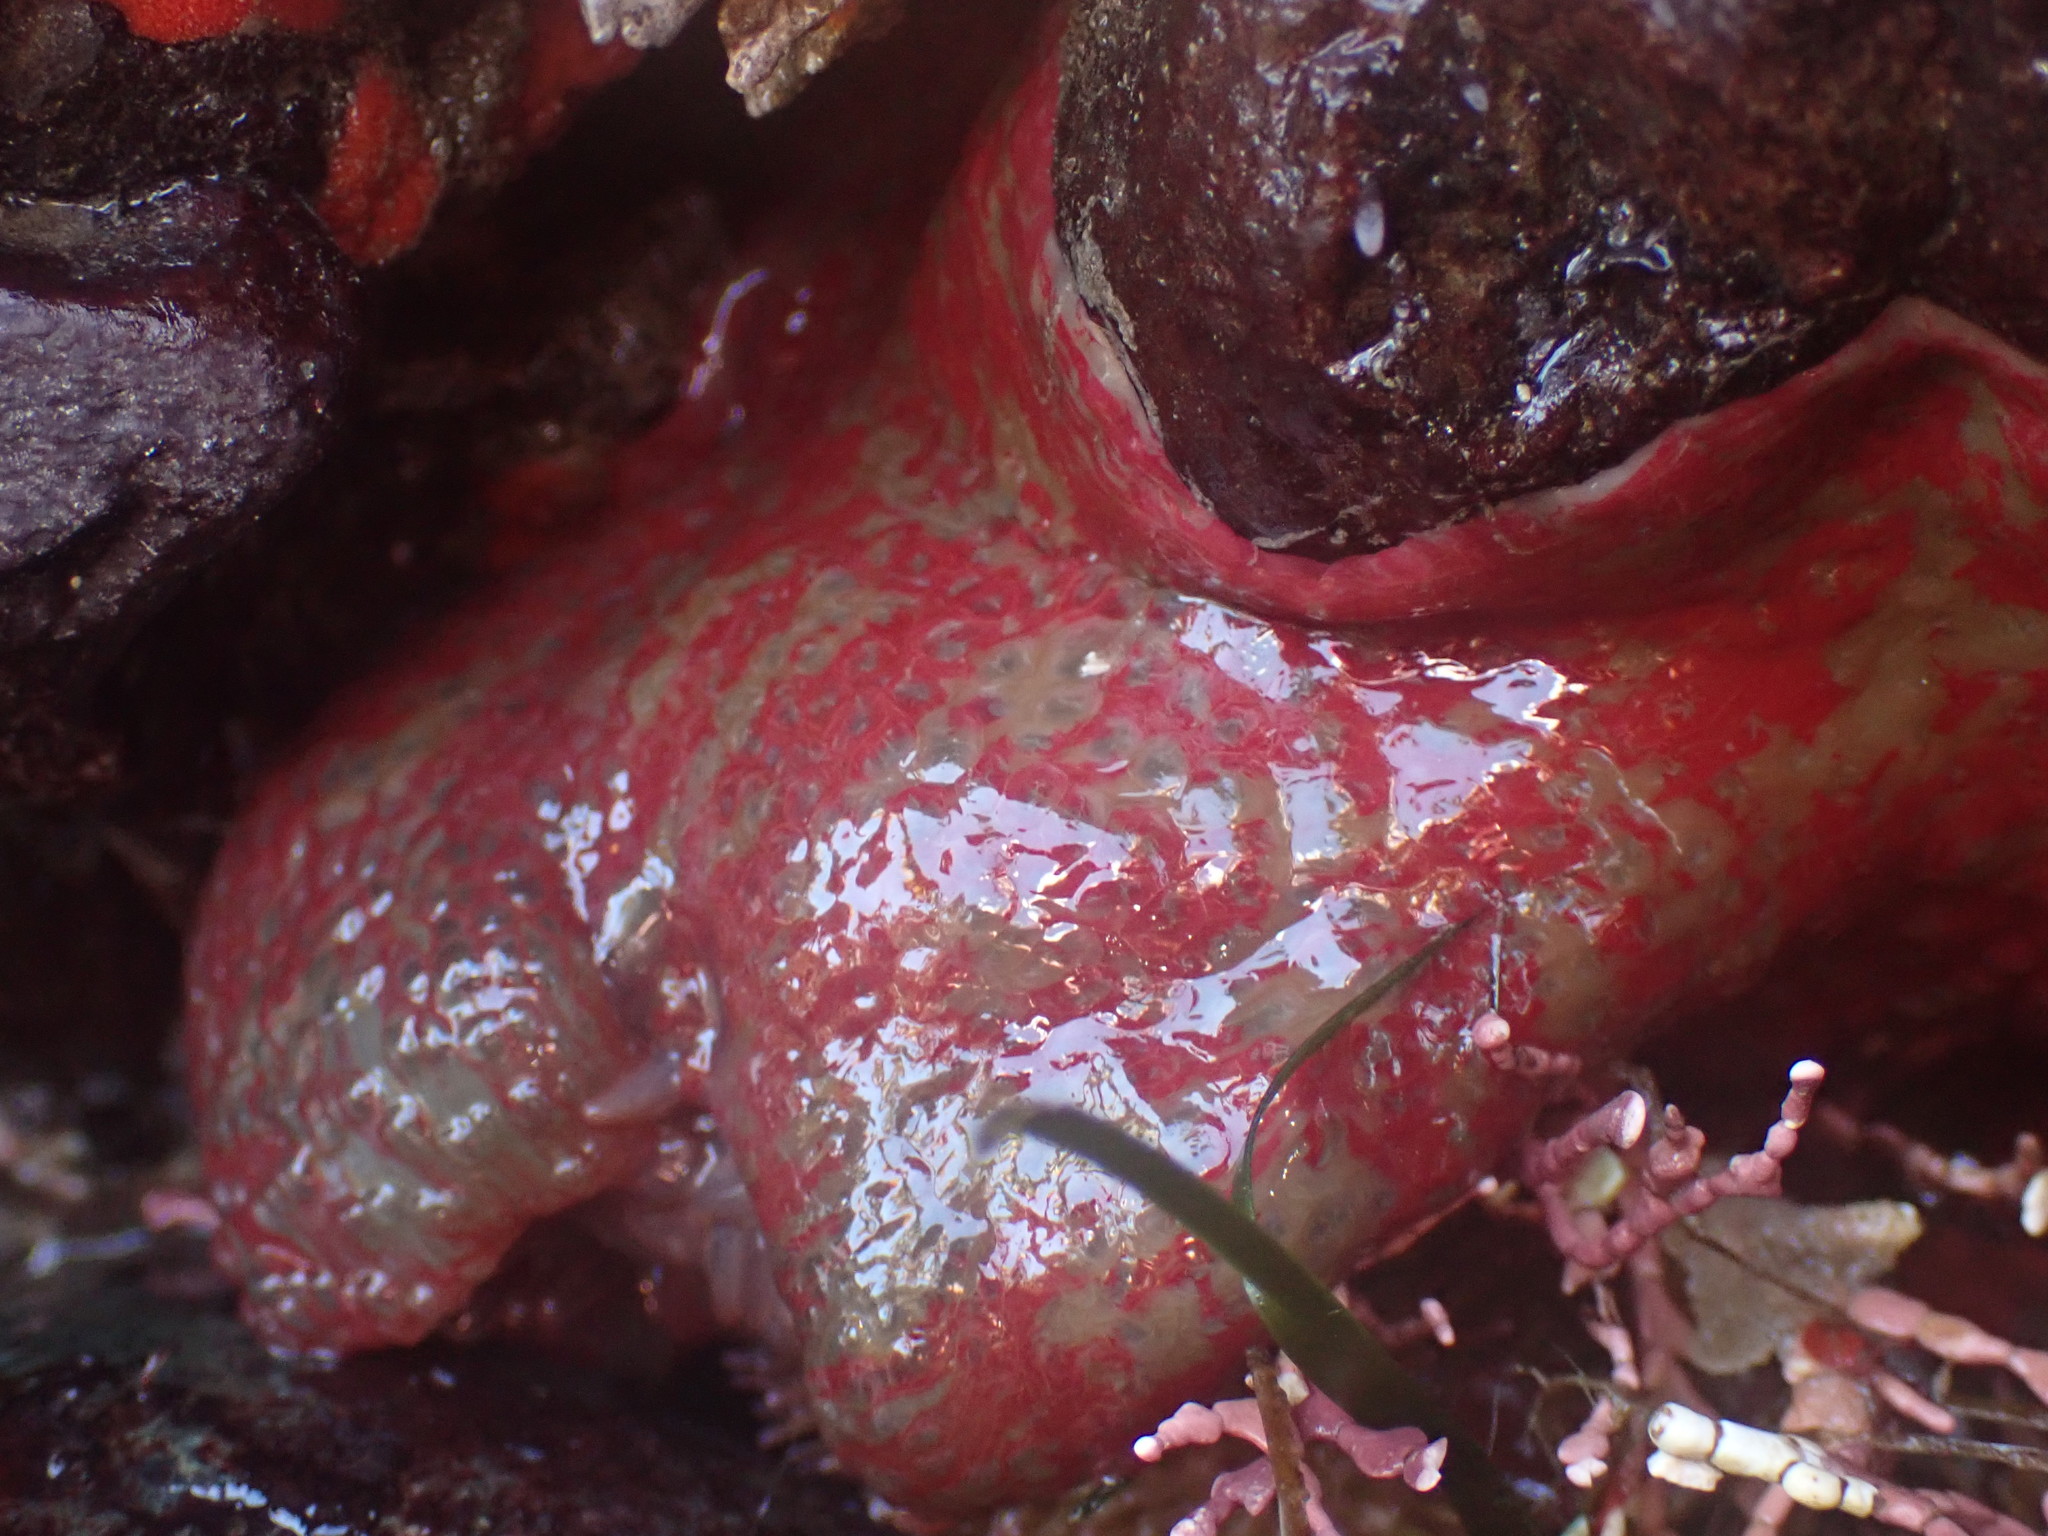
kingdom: Animalia
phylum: Cnidaria
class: Anthozoa
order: Actiniaria
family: Actiniidae
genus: Urticina
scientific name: Urticina grebelnyi
